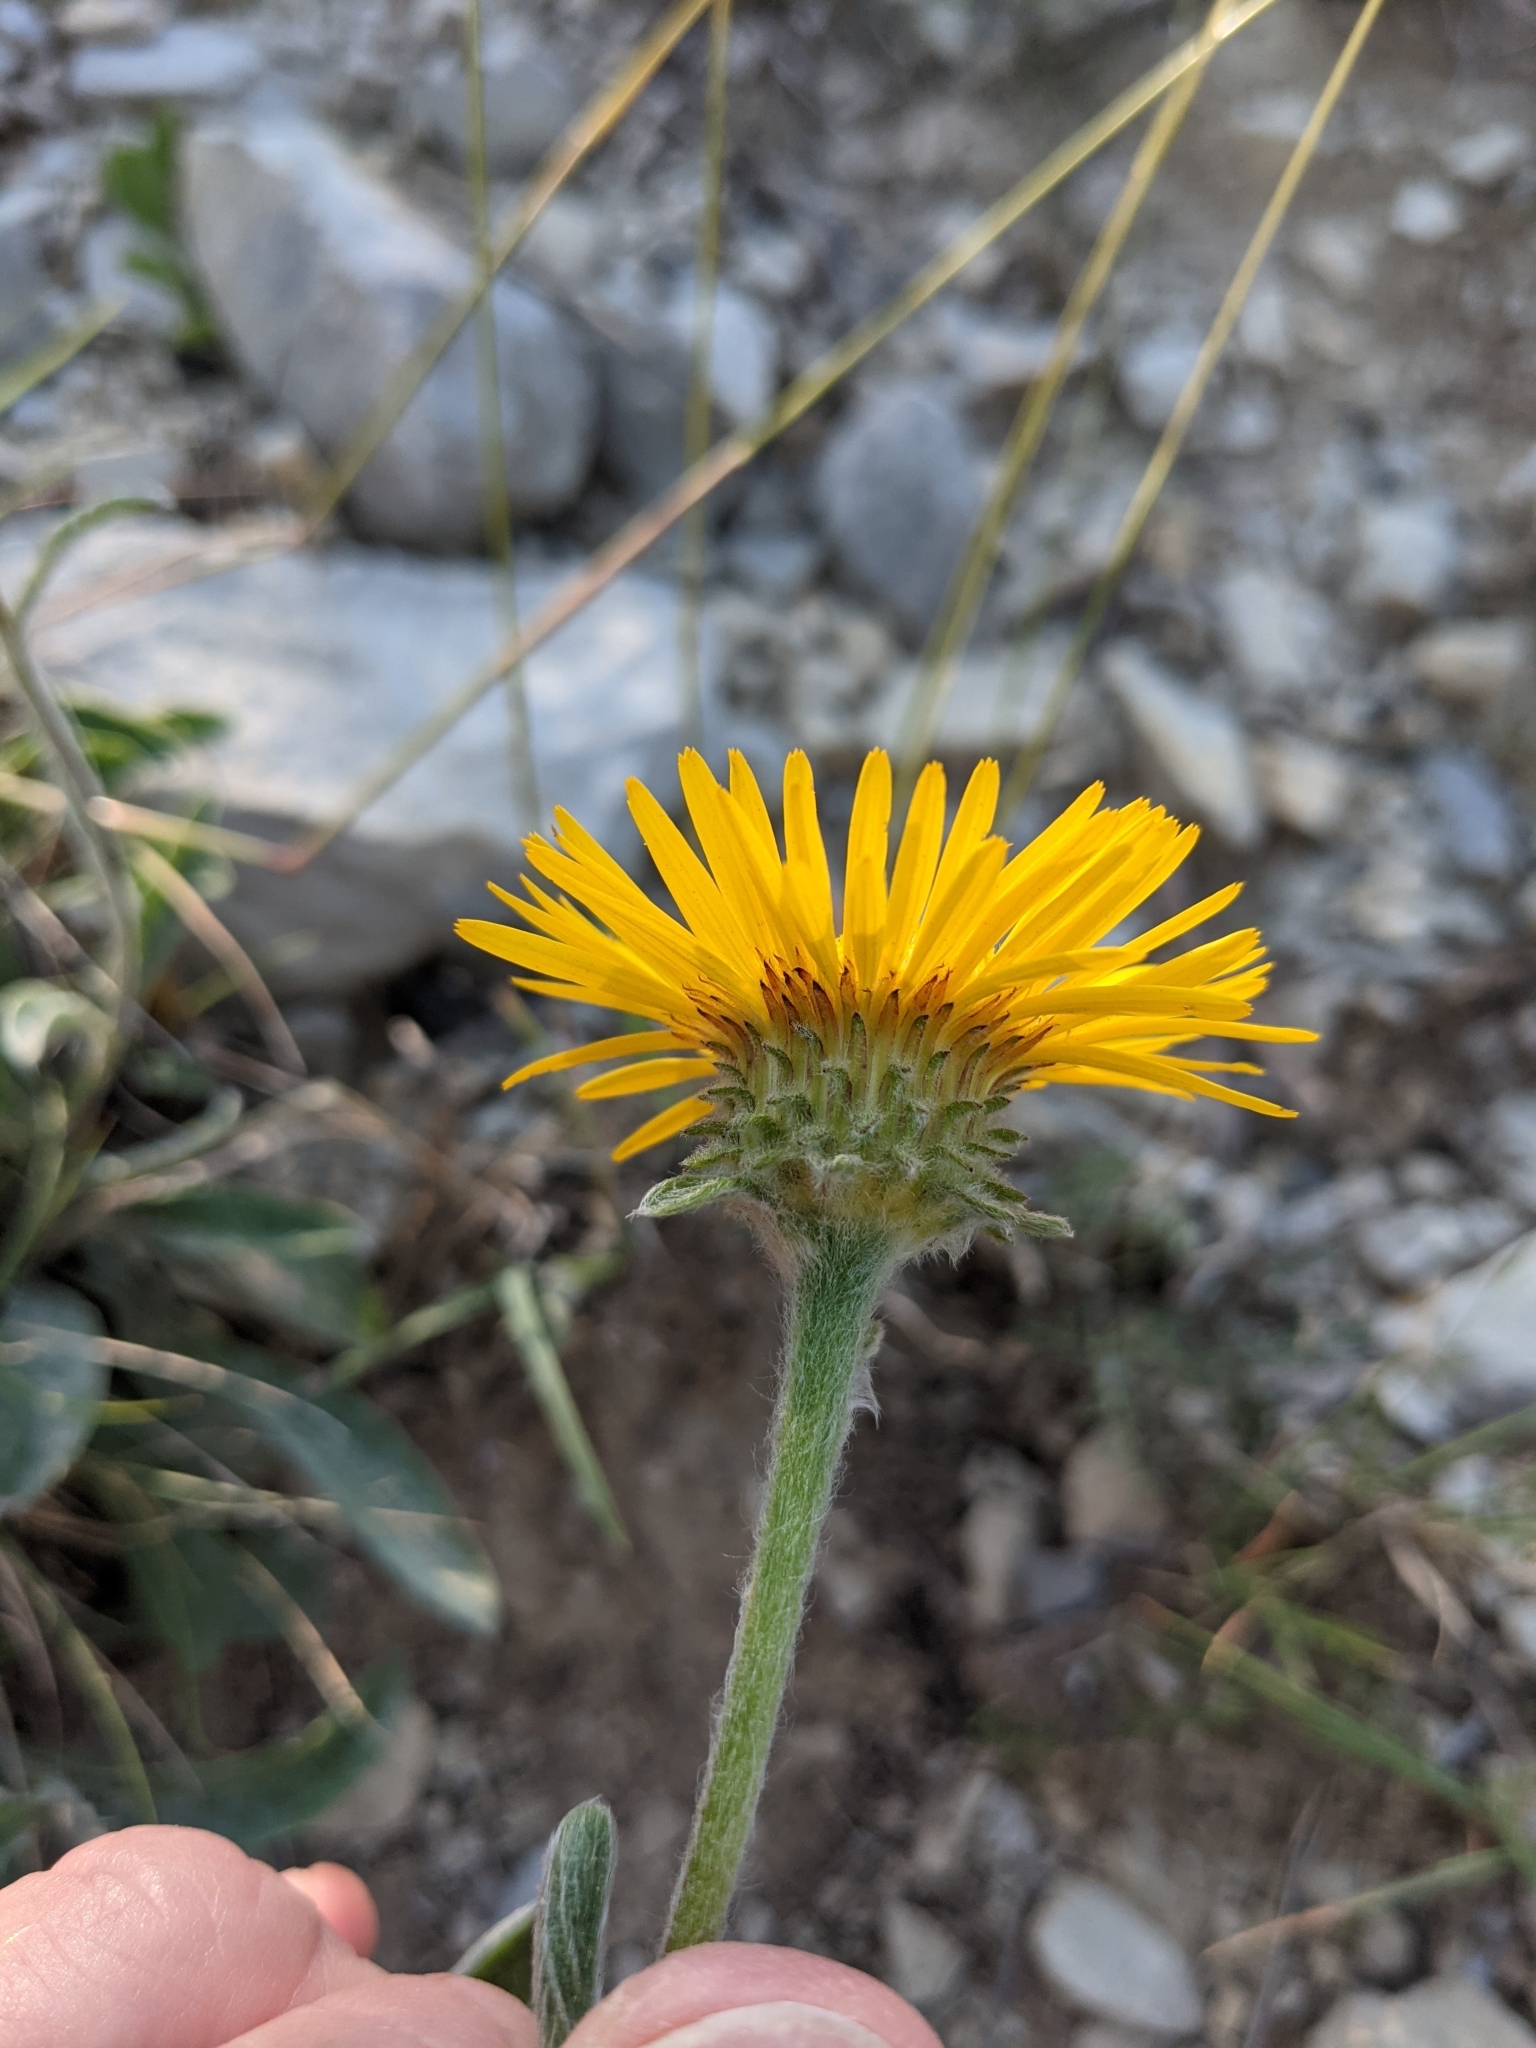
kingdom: Plantae
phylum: Tracheophyta
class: Magnoliopsida
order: Asterales
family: Asteraceae
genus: Pentanema
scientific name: Pentanema montanum
